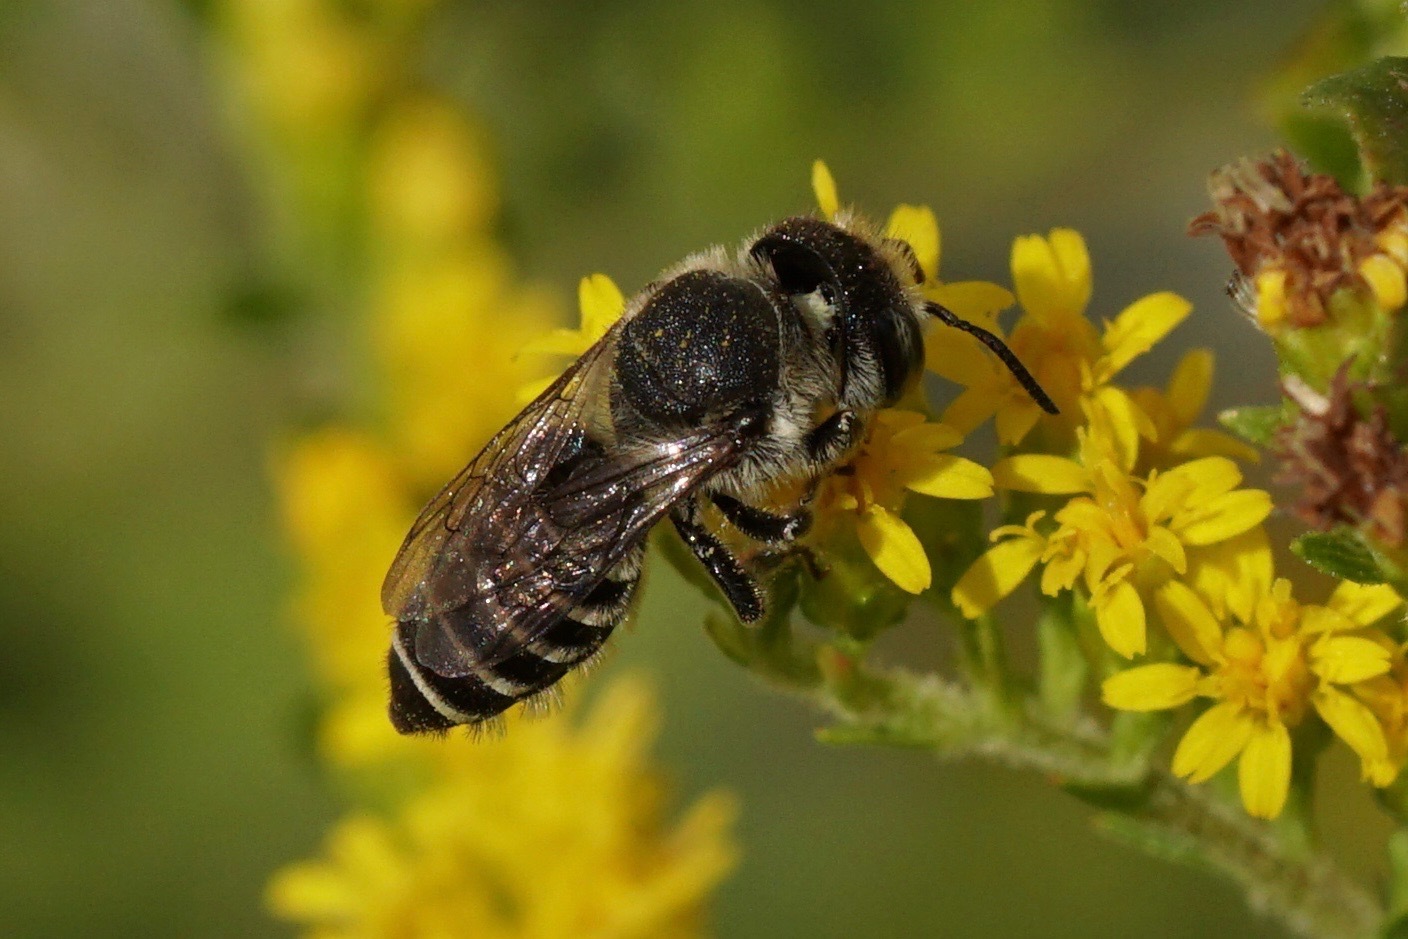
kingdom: Animalia
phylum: Arthropoda
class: Insecta
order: Hymenoptera
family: Megachilidae
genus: Megachile
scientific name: Megachile rotundata
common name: Alfalfa leafcutting bee
